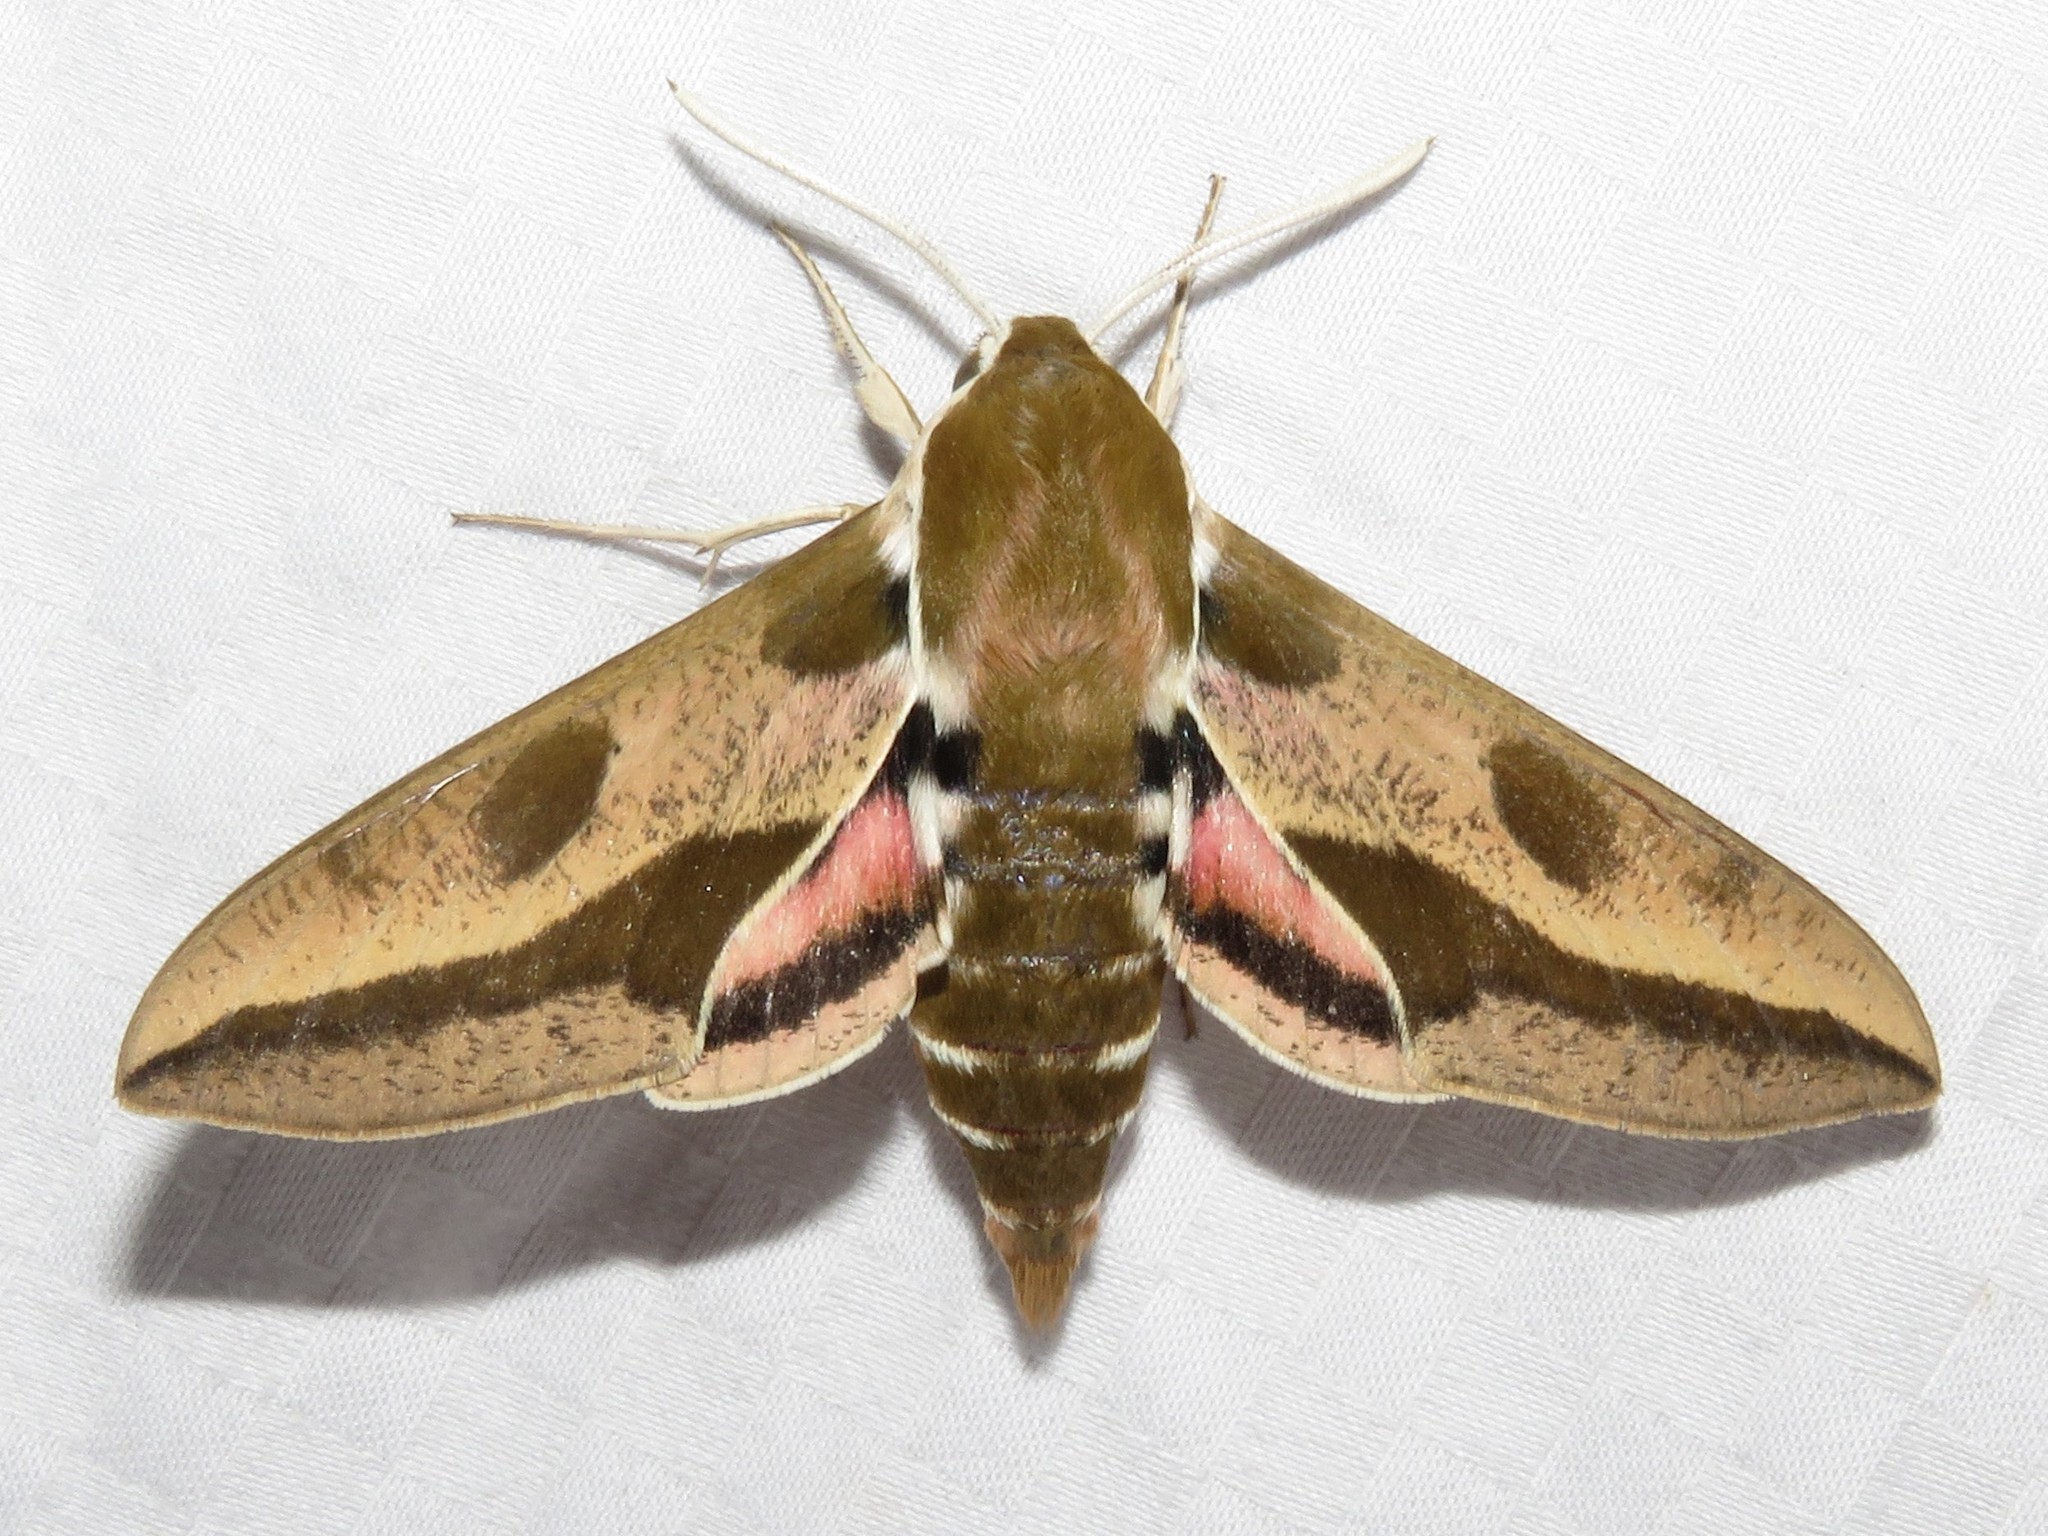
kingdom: Animalia
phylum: Arthropoda
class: Insecta
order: Lepidoptera
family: Sphingidae
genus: Hyles
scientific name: Hyles euphorbiae
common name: Spurge hawk-moth
